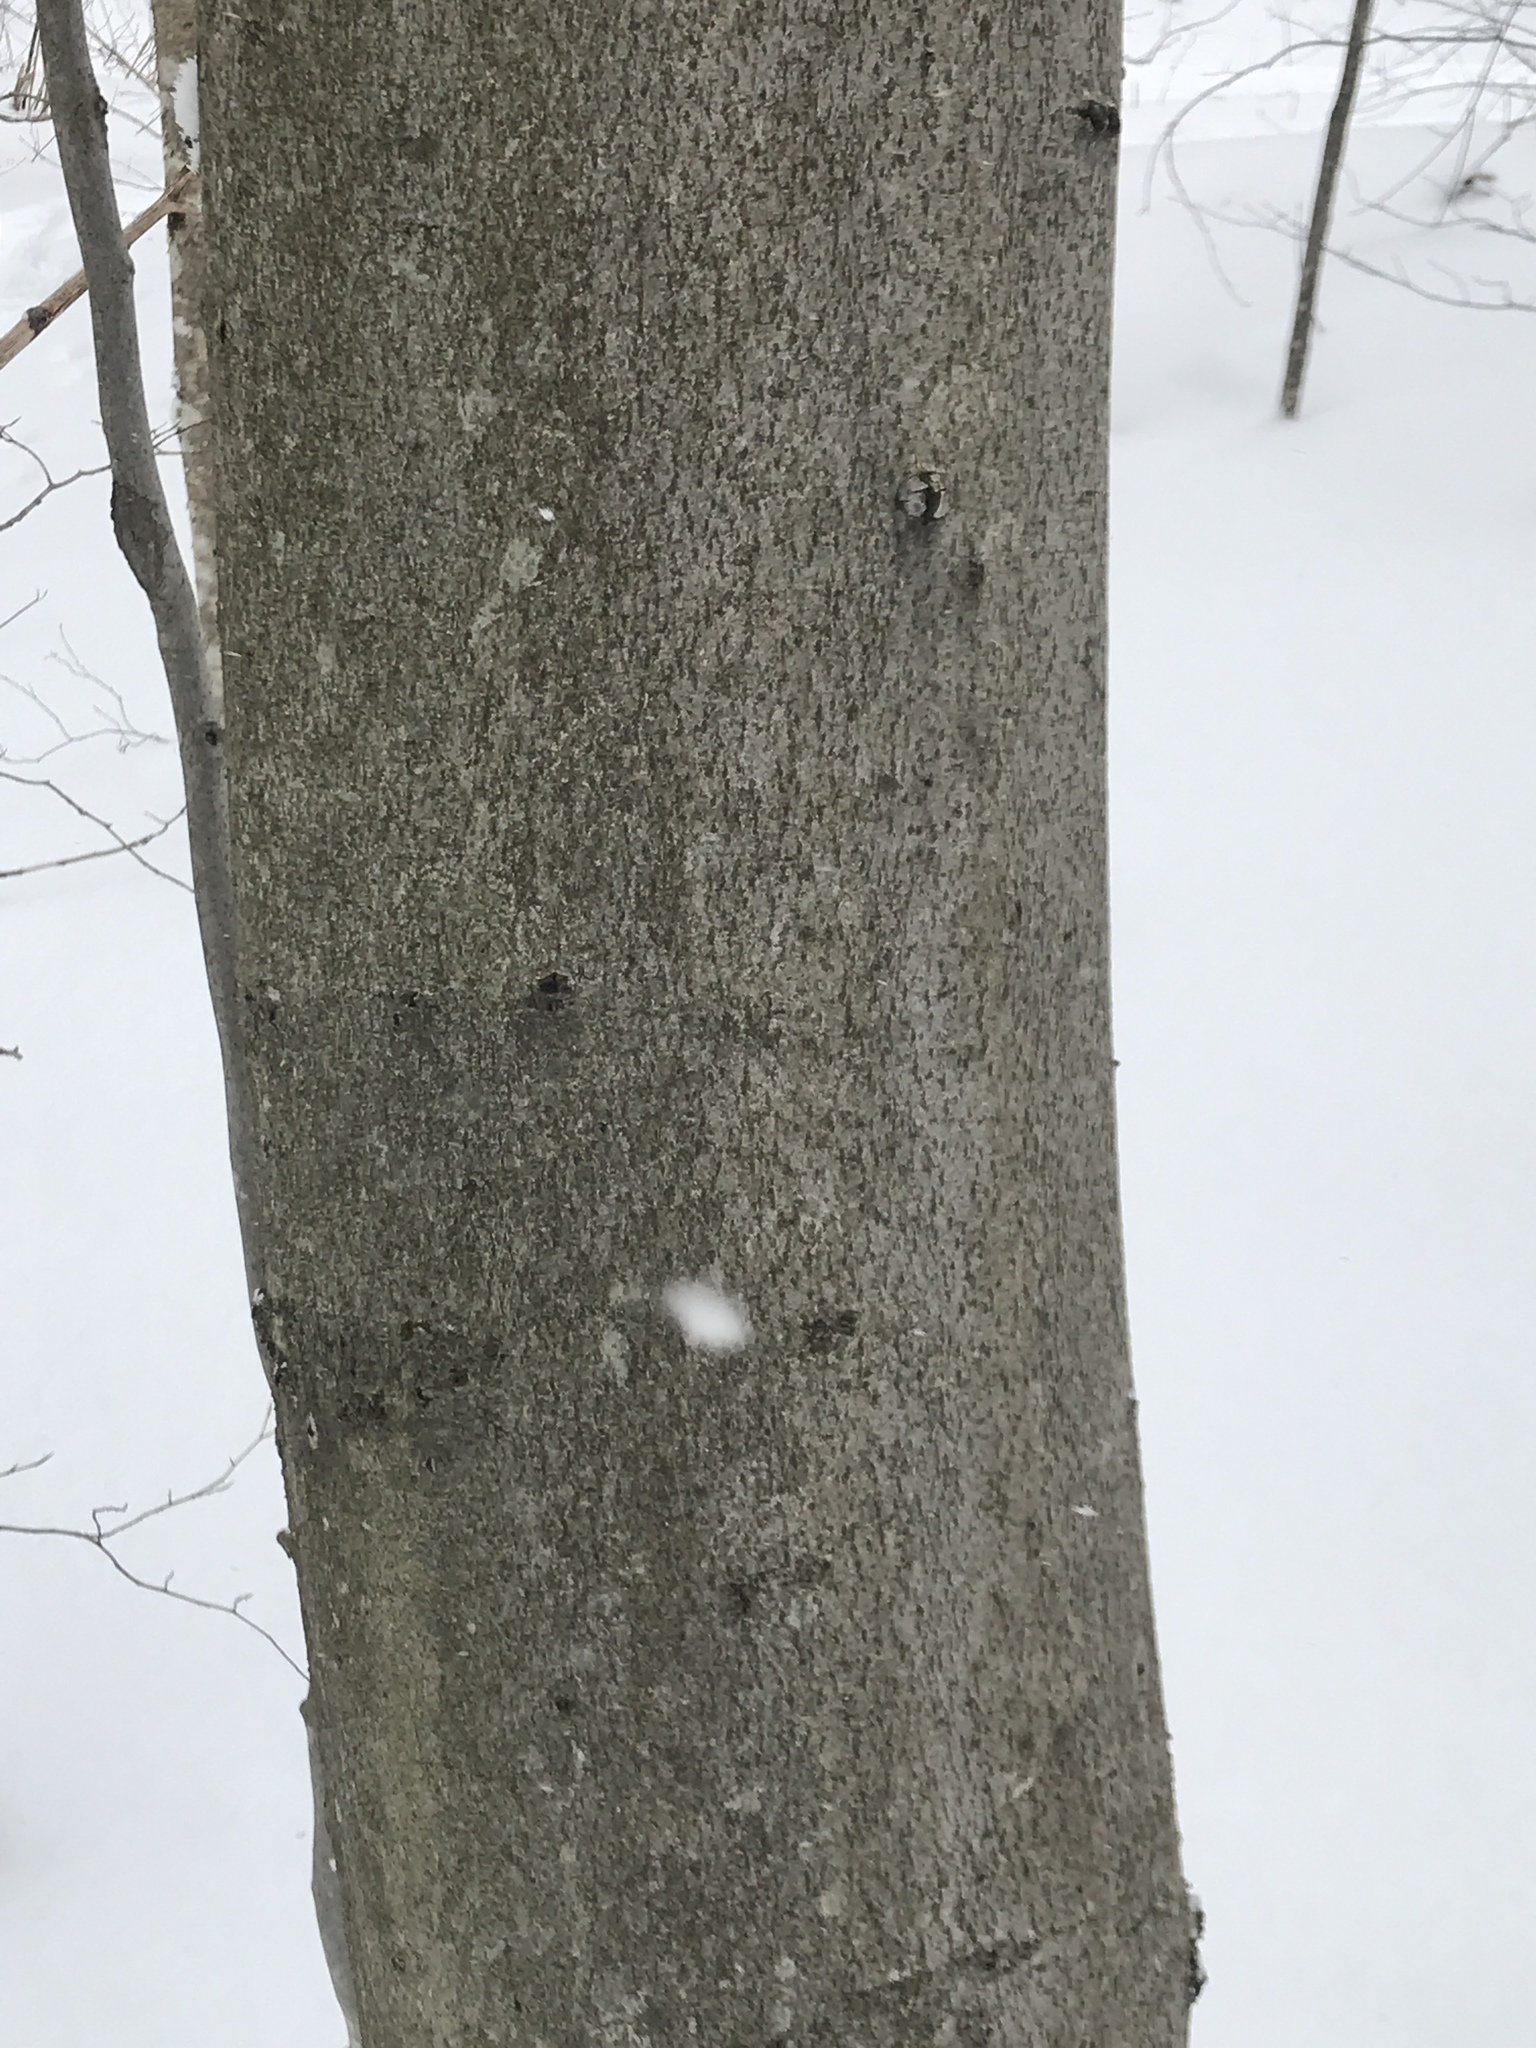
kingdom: Plantae
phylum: Tracheophyta
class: Magnoliopsida
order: Fagales
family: Fagaceae
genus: Fagus
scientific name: Fagus grandifolia
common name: American beech
